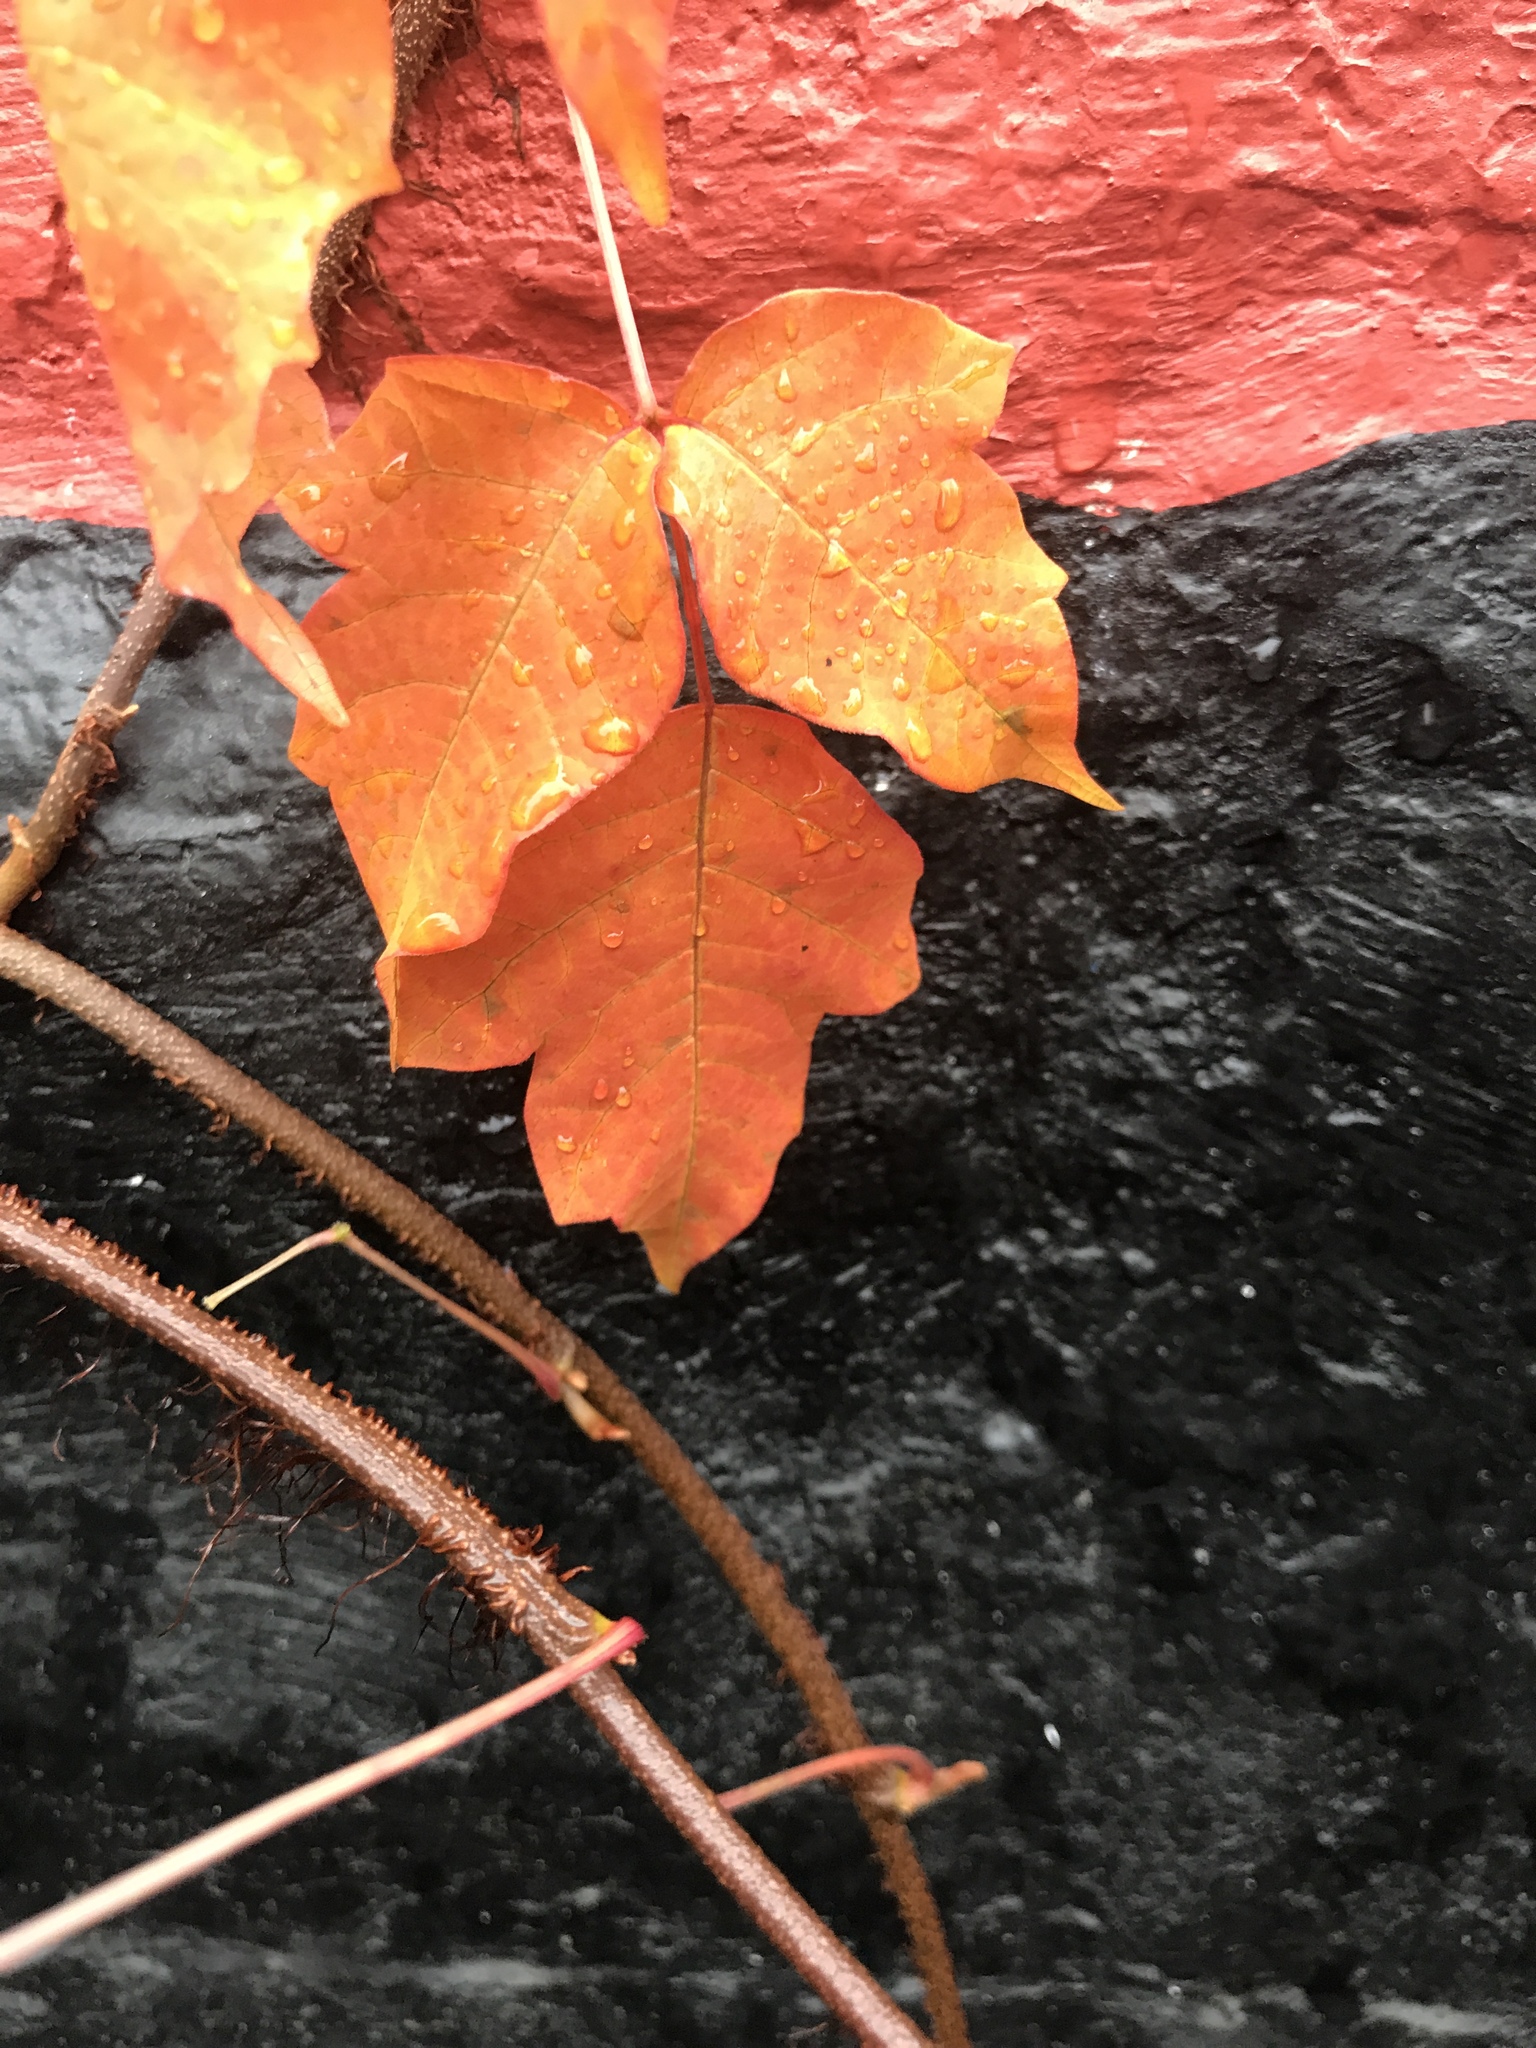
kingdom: Plantae
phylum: Tracheophyta
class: Magnoliopsida
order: Sapindales
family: Anacardiaceae
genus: Toxicodendron
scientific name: Toxicodendron radicans
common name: Poison ivy
